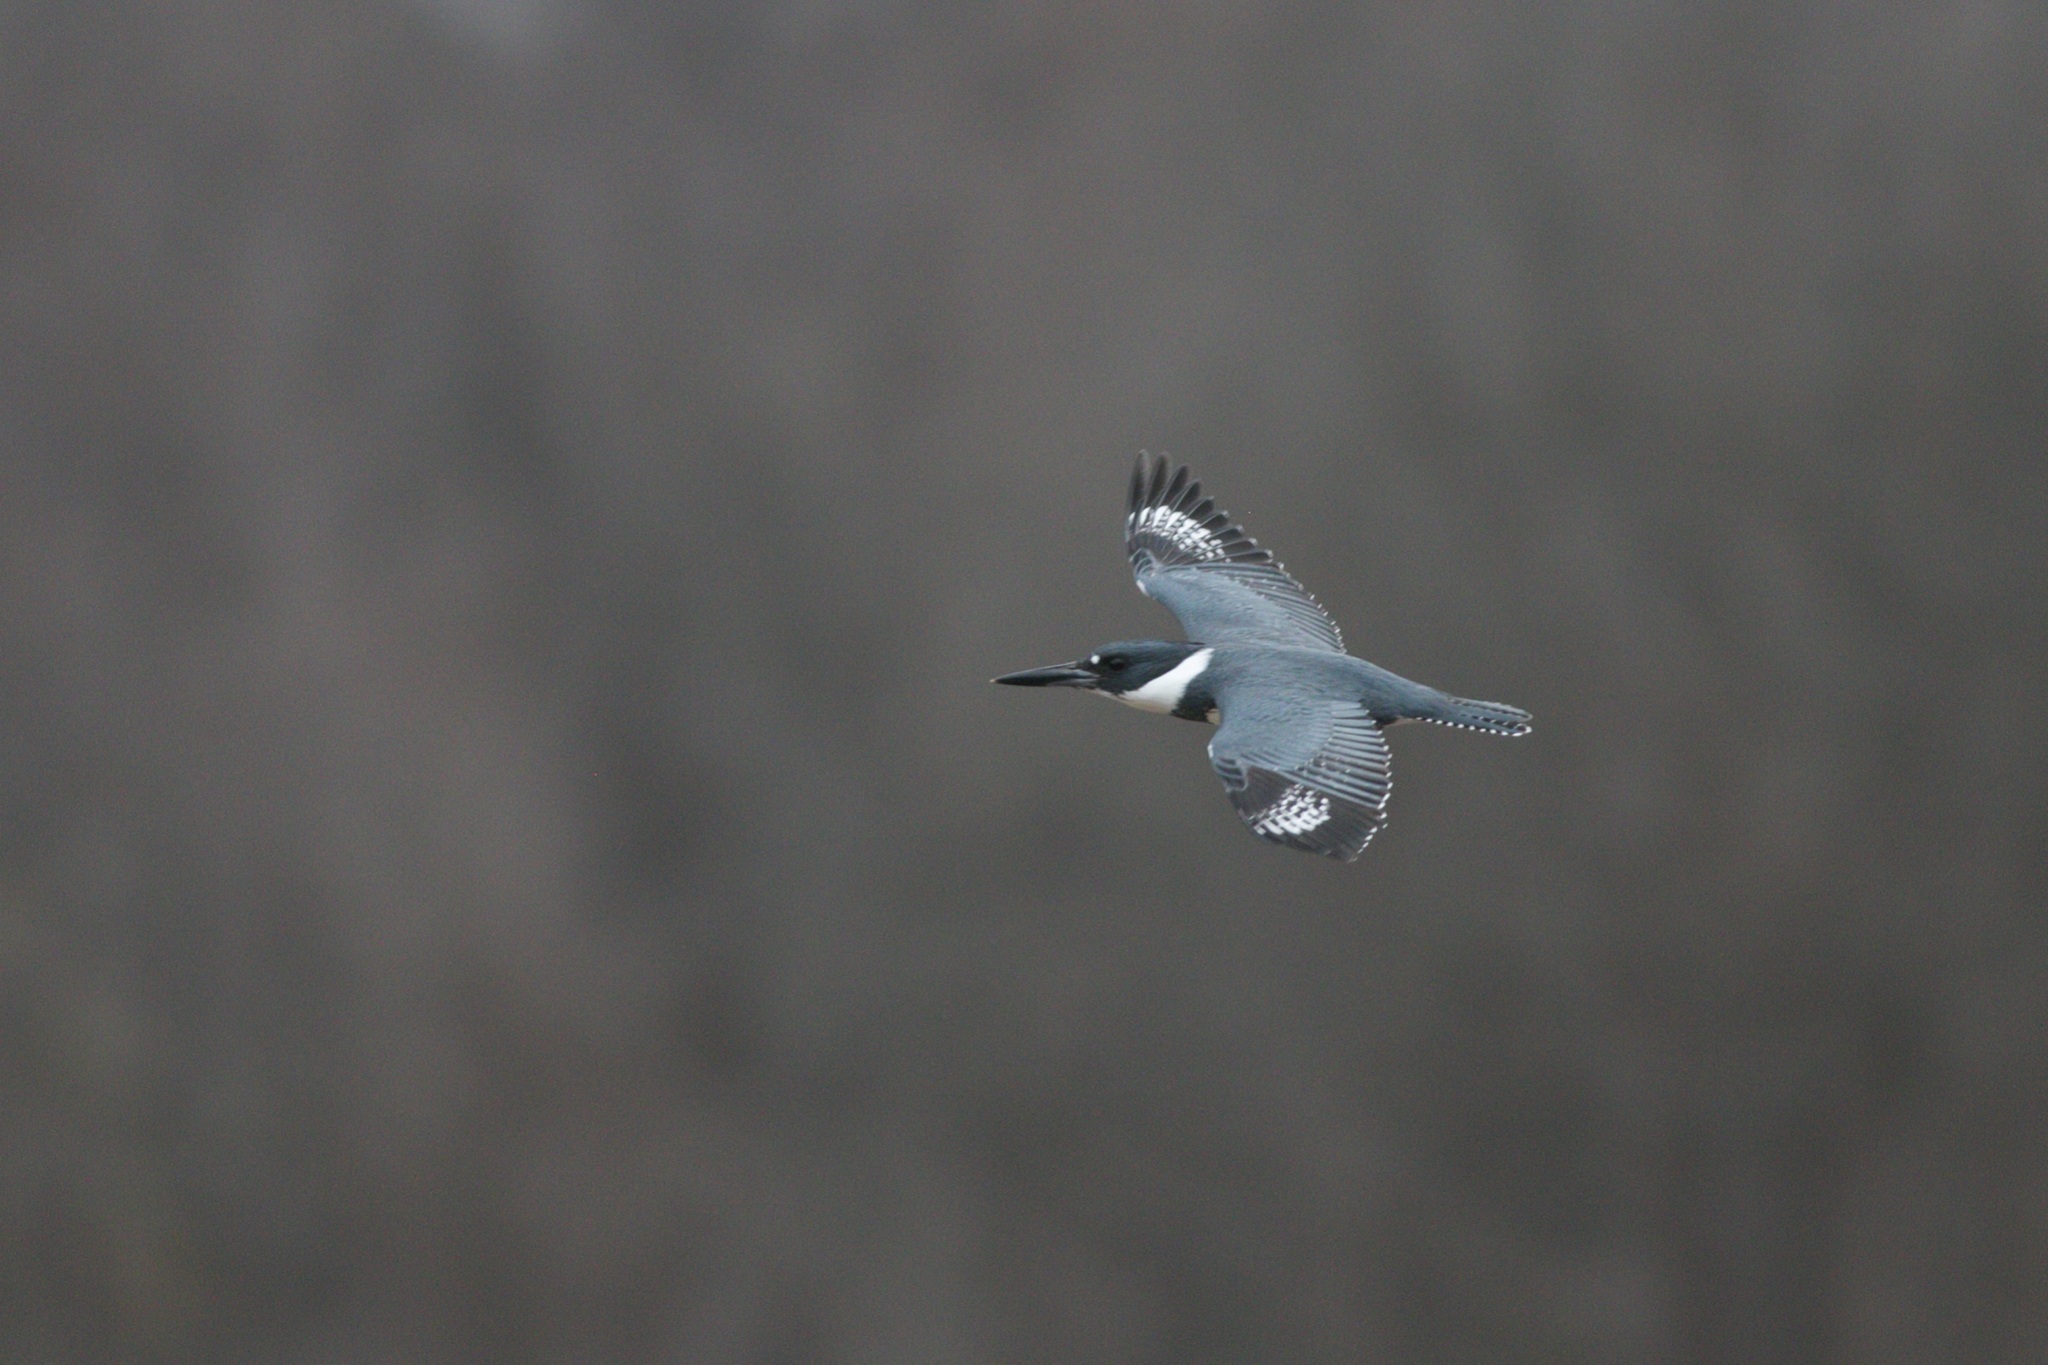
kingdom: Animalia
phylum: Chordata
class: Aves
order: Coraciiformes
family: Alcedinidae
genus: Megaceryle
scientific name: Megaceryle alcyon
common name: Belted kingfisher
